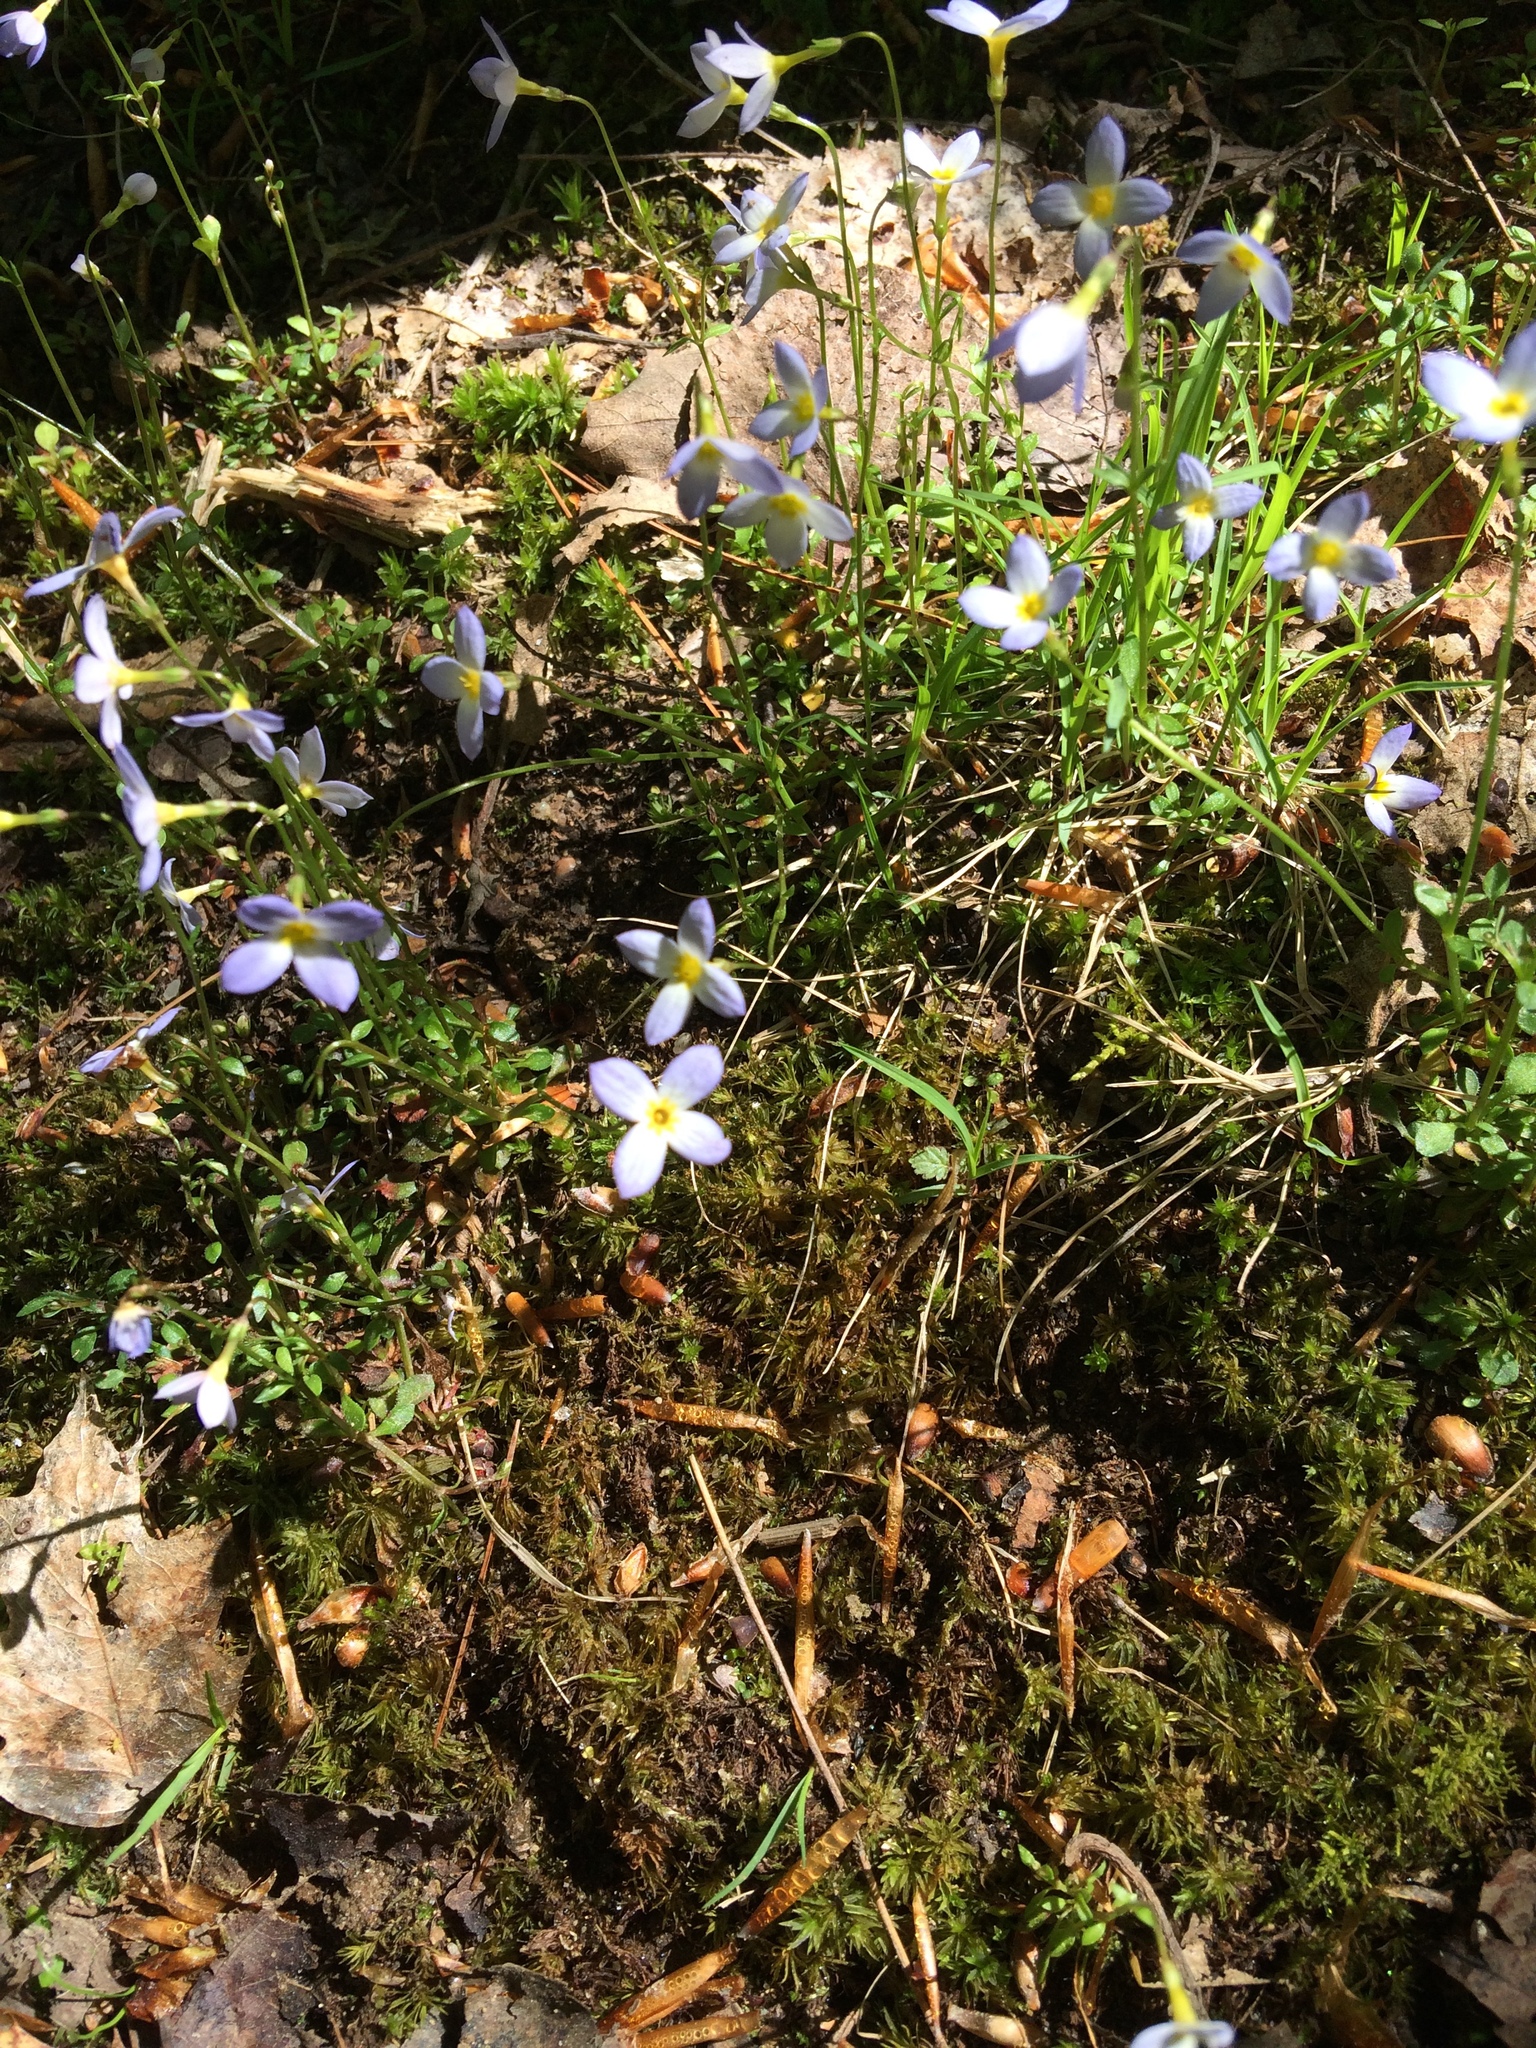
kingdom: Plantae
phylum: Tracheophyta
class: Magnoliopsida
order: Gentianales
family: Rubiaceae
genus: Houstonia
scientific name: Houstonia caerulea
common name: Bluets
